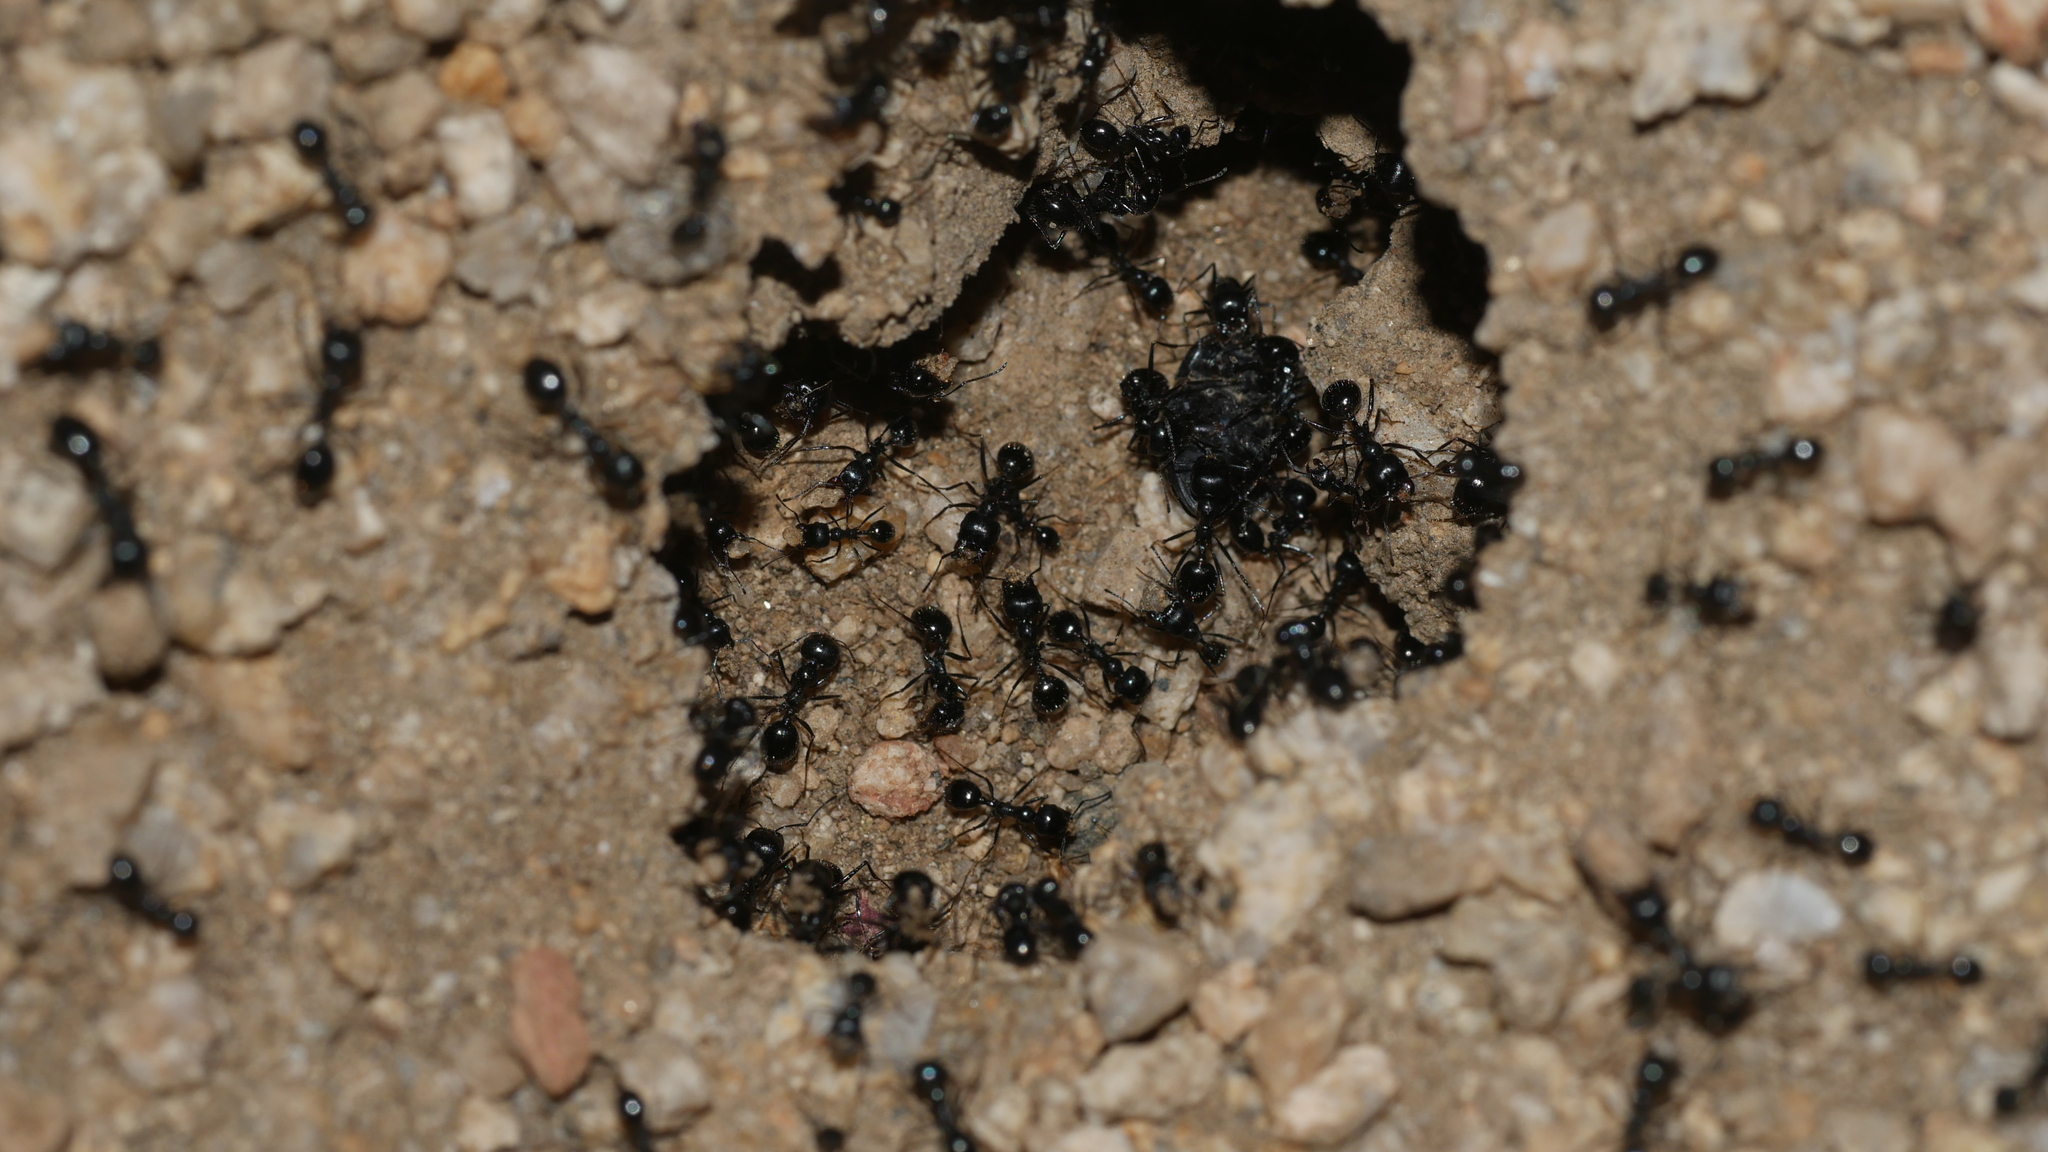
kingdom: Animalia
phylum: Arthropoda
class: Insecta
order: Hymenoptera
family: Formicidae
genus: Messor
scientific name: Messor pergandei
